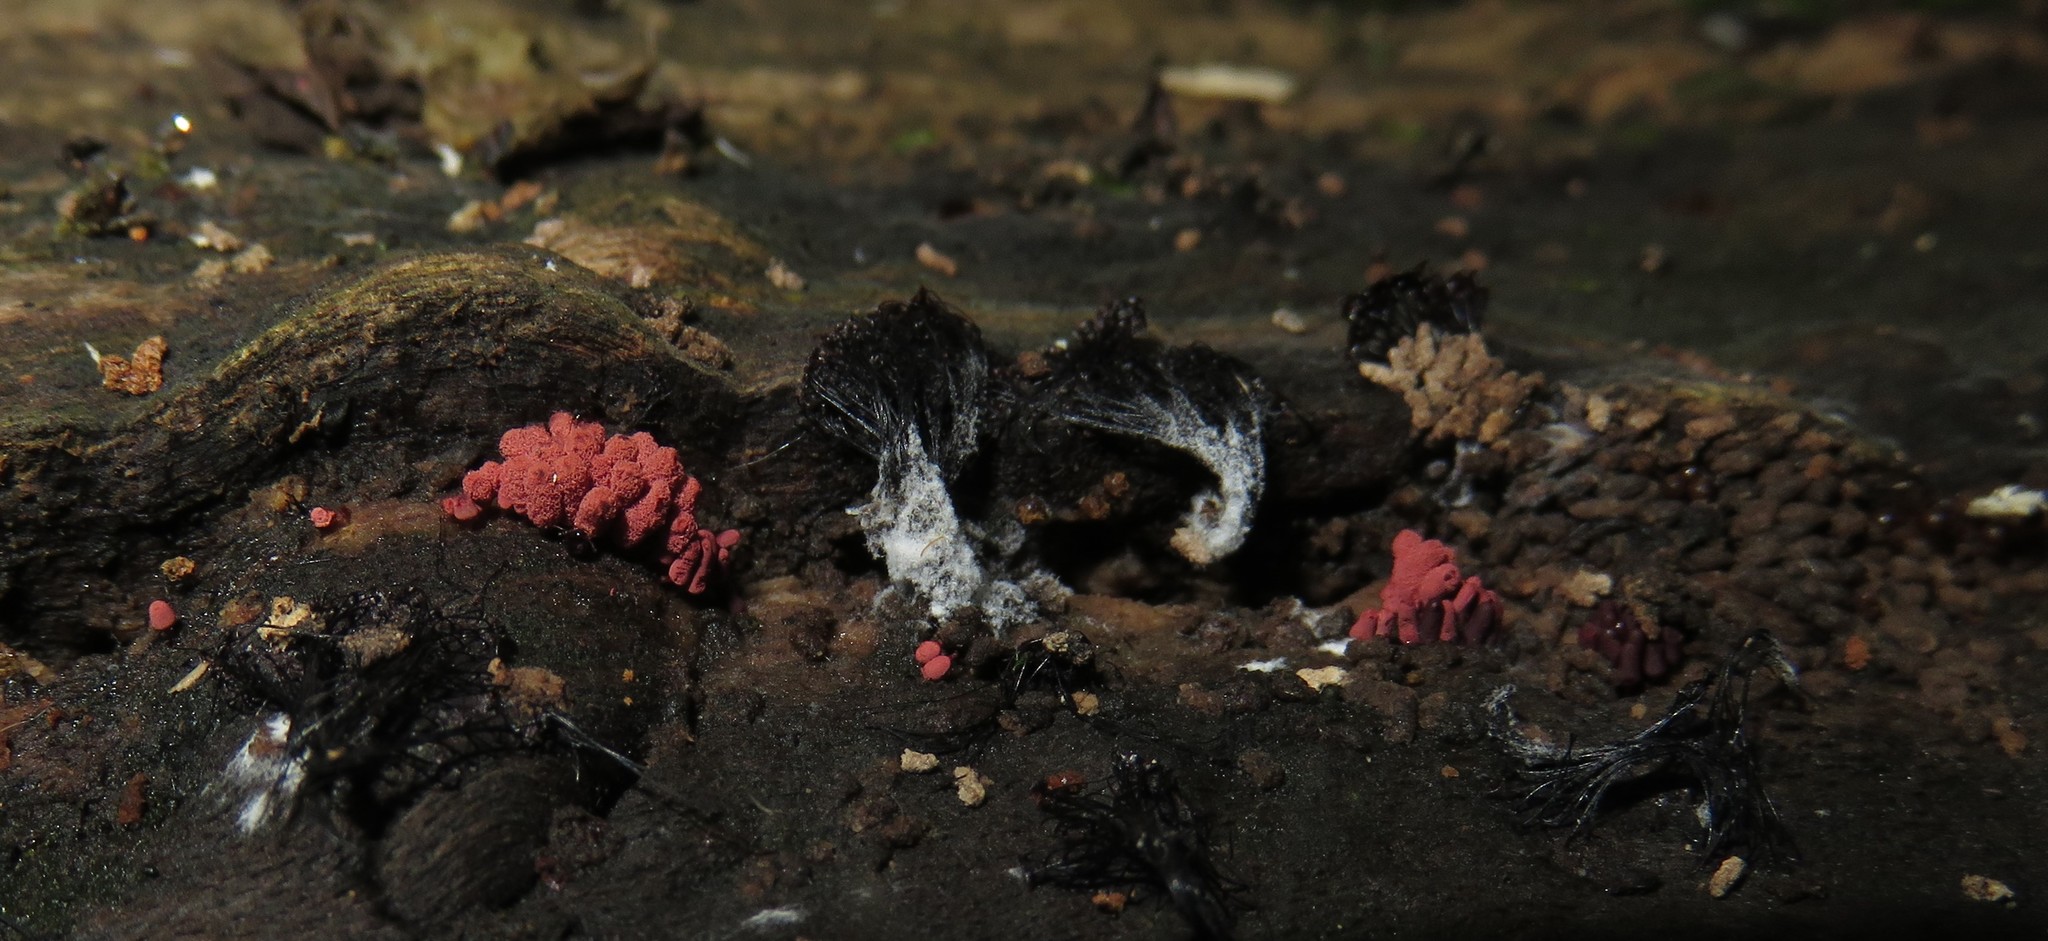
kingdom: Protozoa
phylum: Mycetozoa
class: Myxomycetes
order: Trichiales
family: Arcyriaceae
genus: Arcyria
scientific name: Arcyria denudata
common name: Carnival candy slime mold
